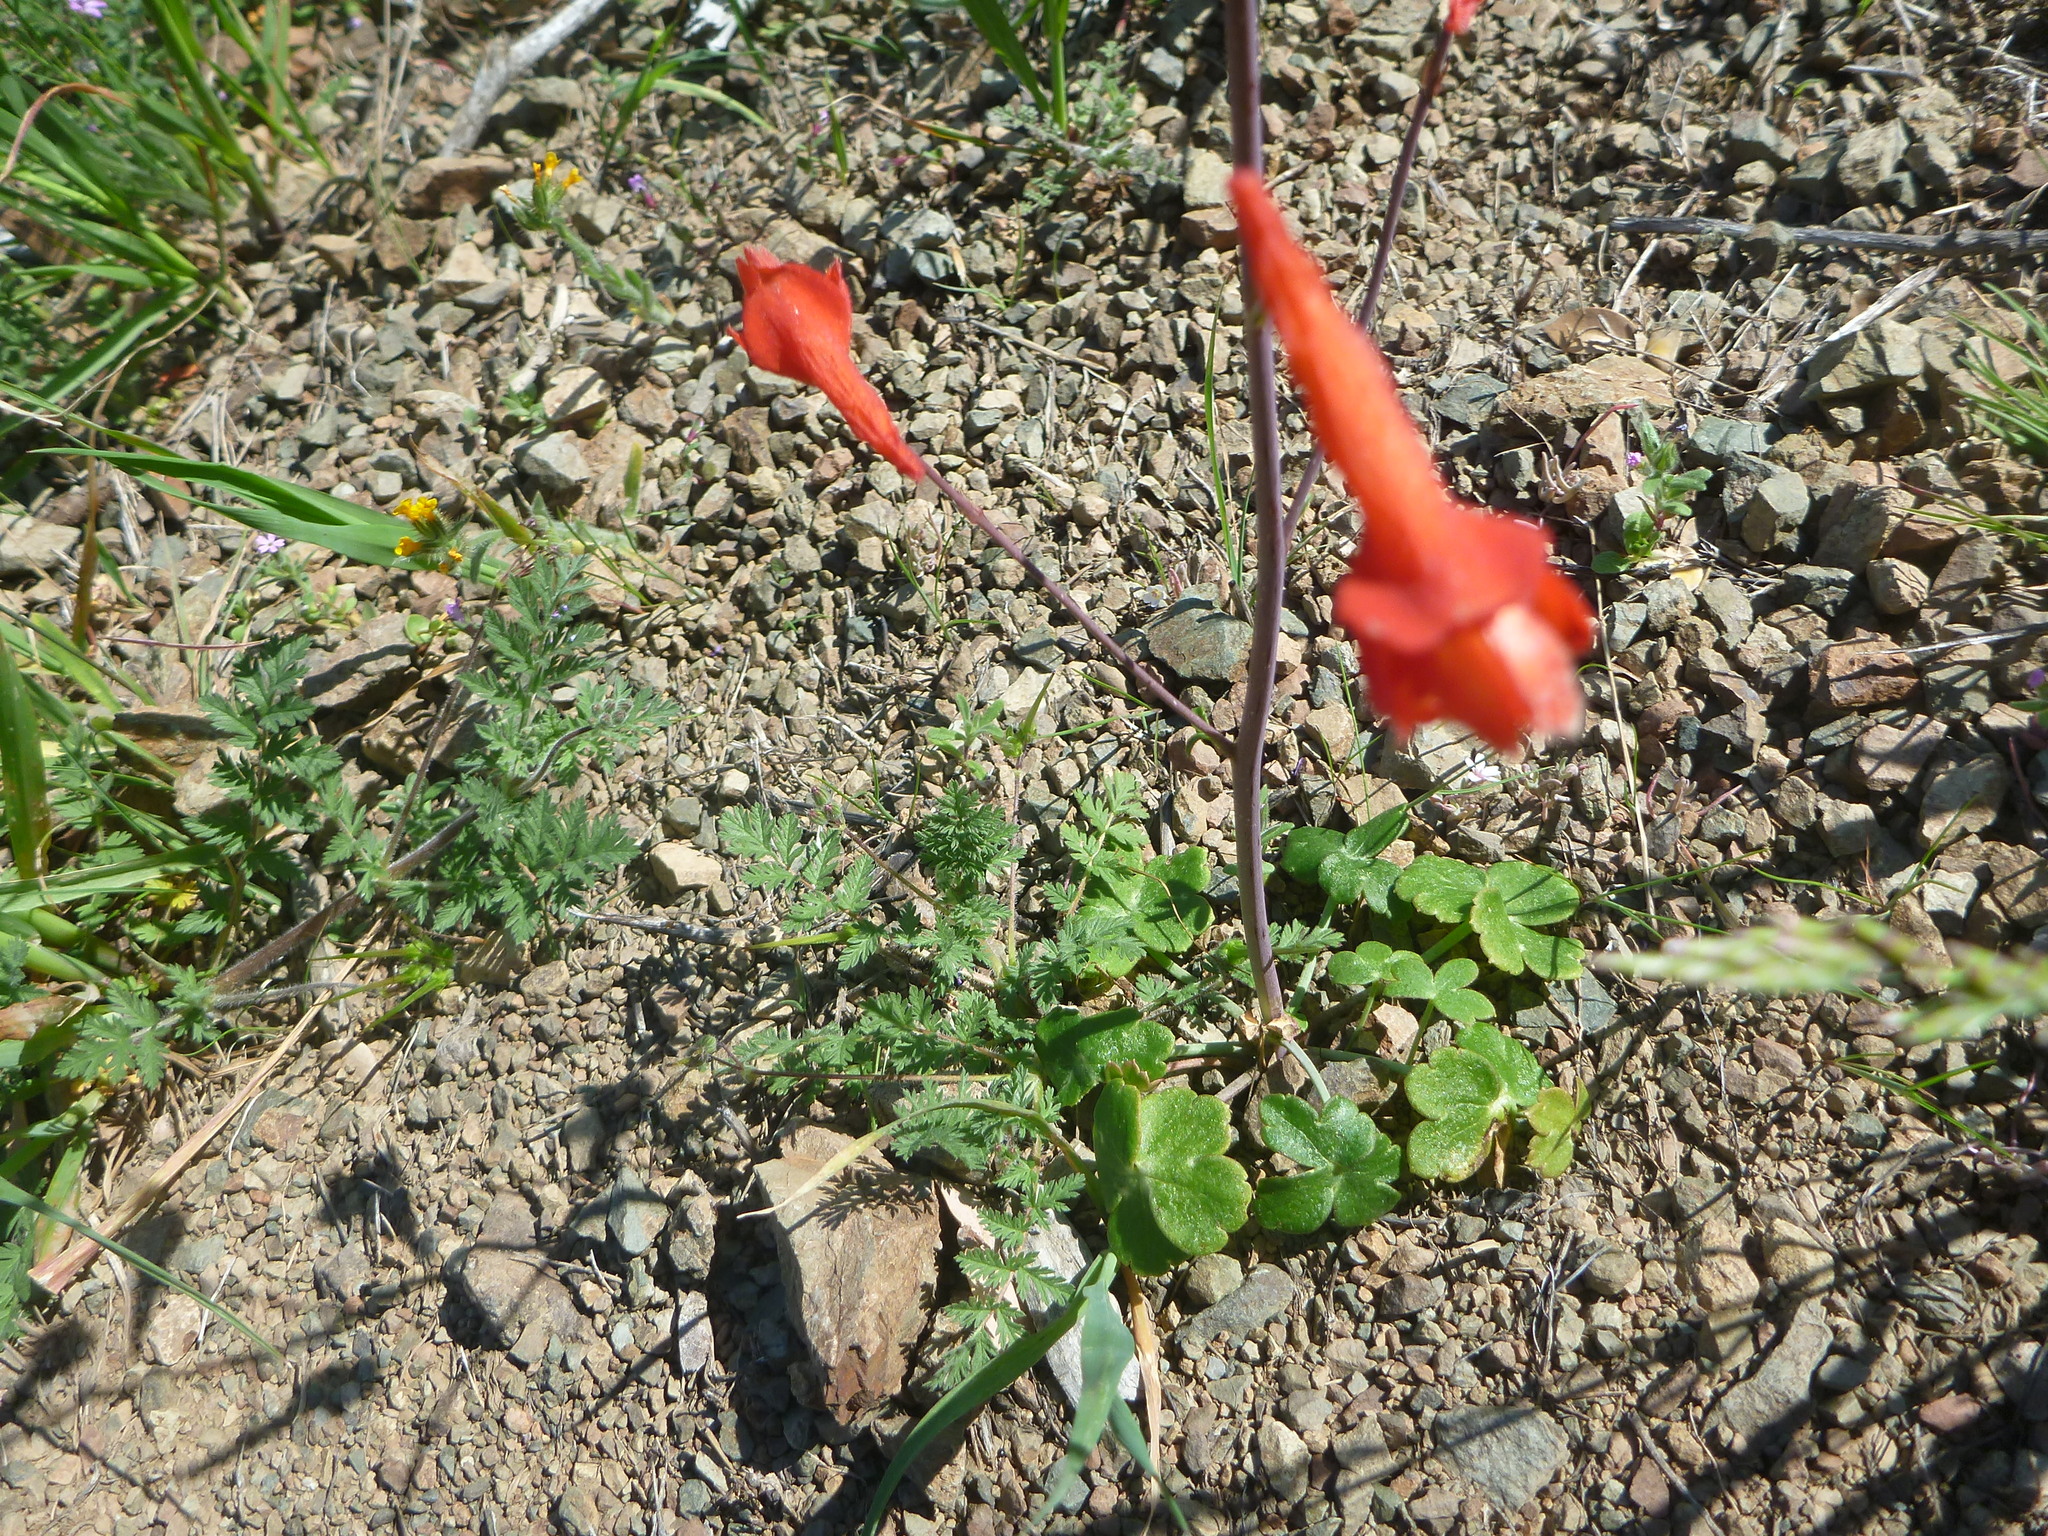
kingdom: Plantae
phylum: Tracheophyta
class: Magnoliopsida
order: Ranunculales
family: Ranunculaceae
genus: Delphinium
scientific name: Delphinium nudicaule
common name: Red larkspur
